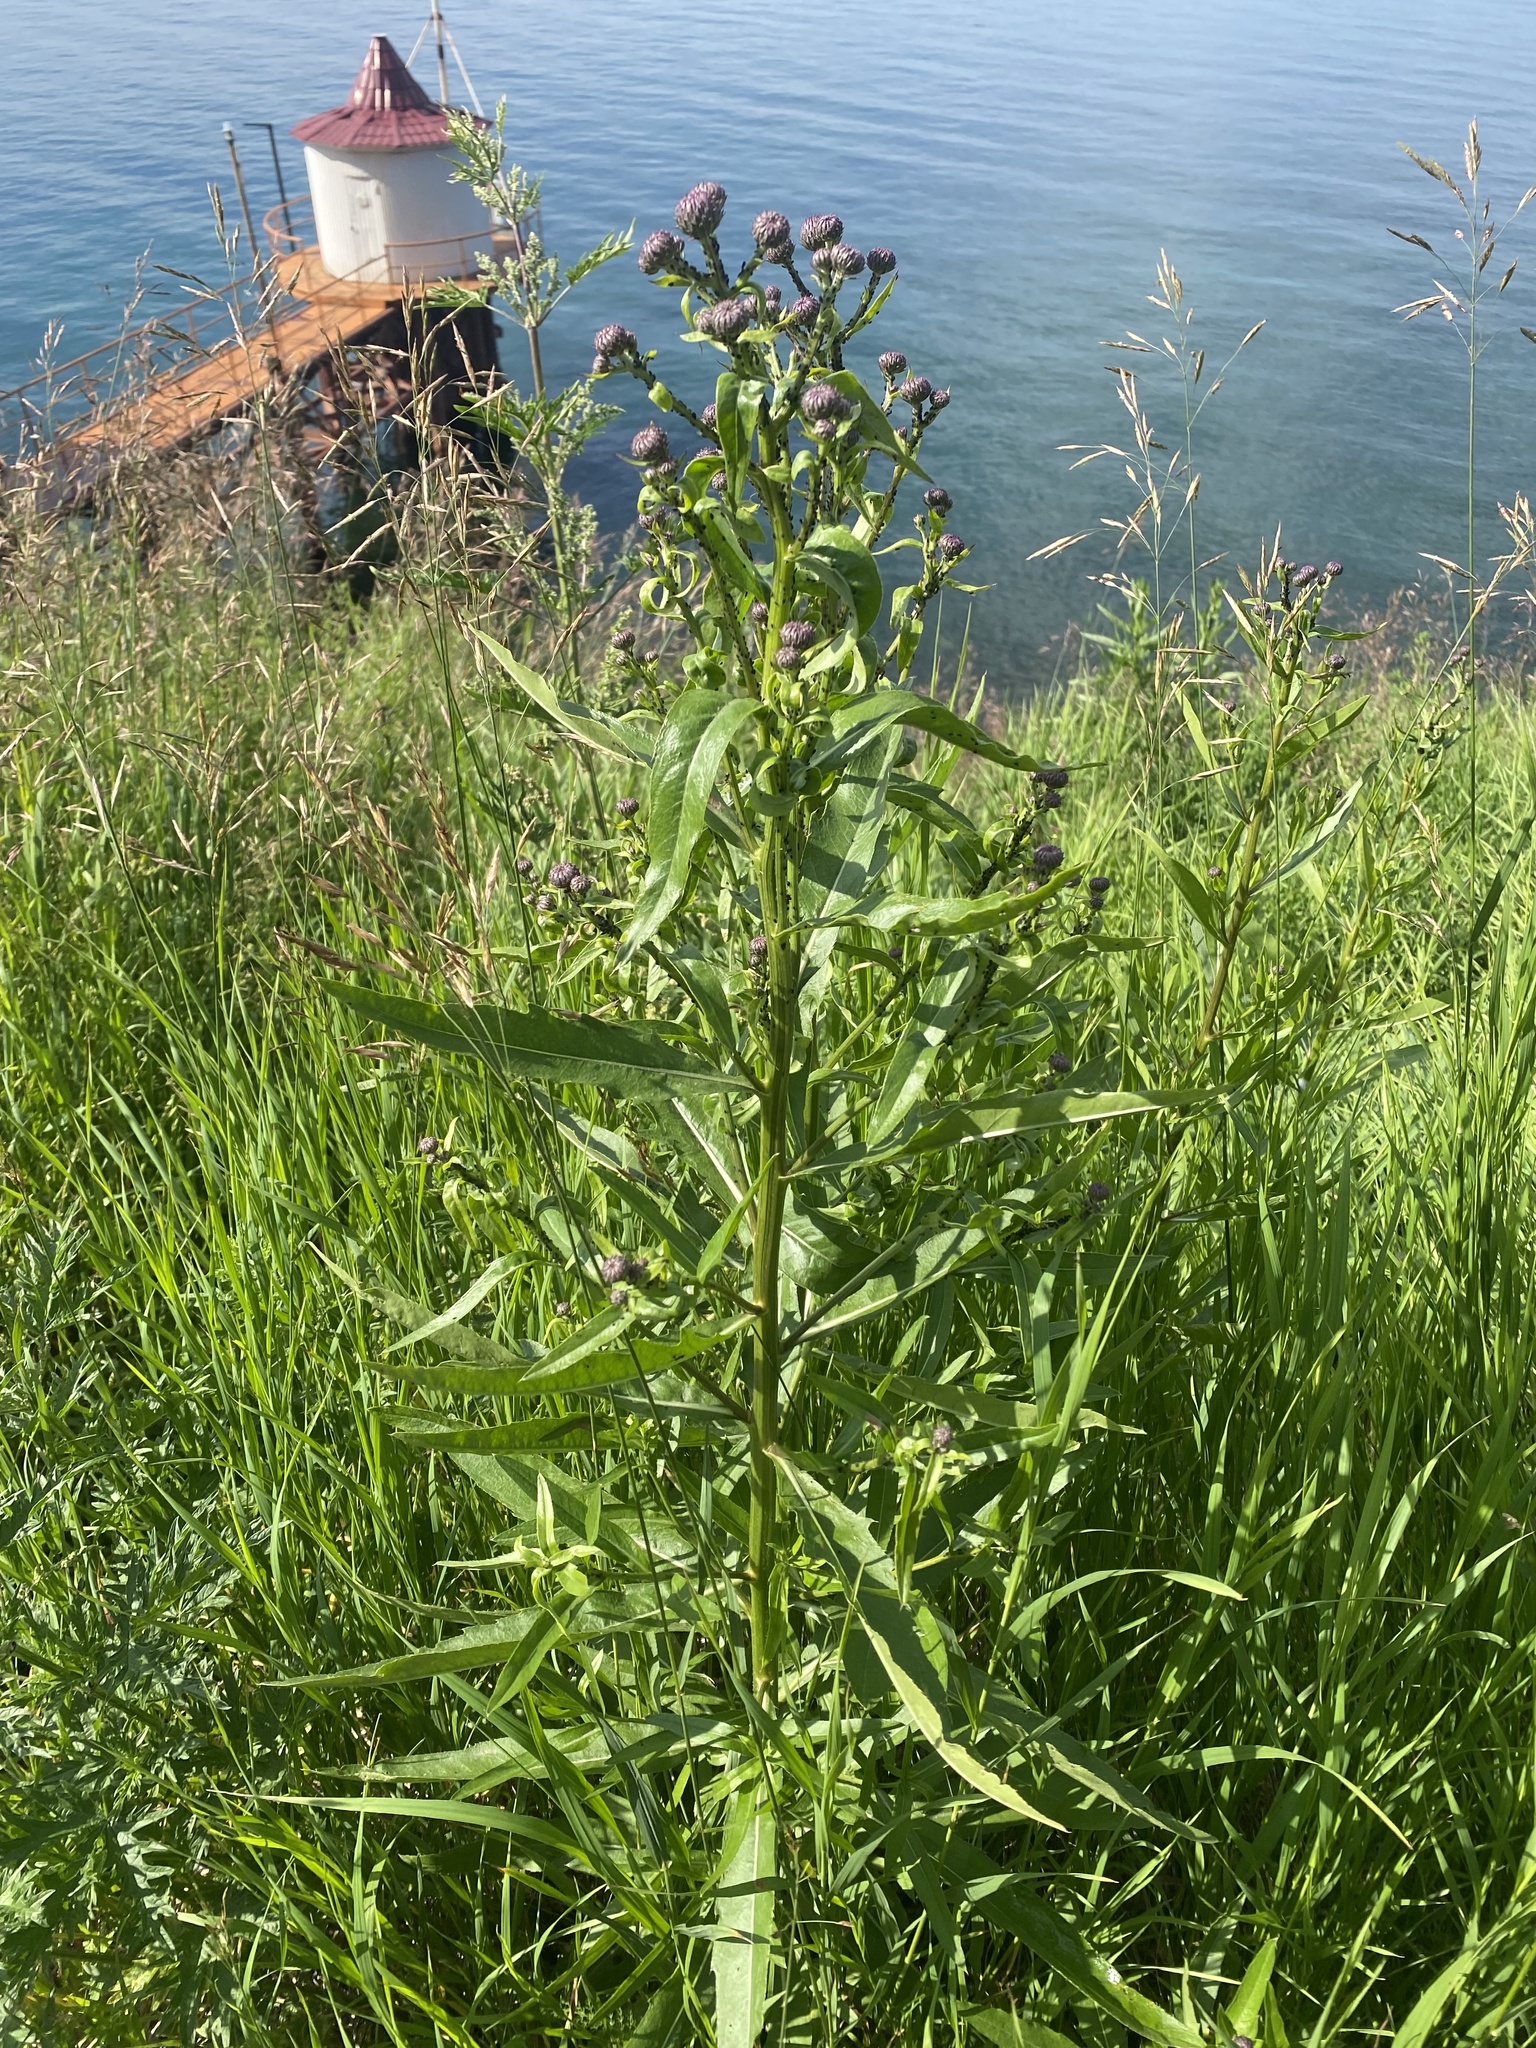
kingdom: Plantae
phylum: Tracheophyta
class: Magnoliopsida
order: Asterales
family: Asteraceae
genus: Cirsium
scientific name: Cirsium arvense
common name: Creeping thistle
